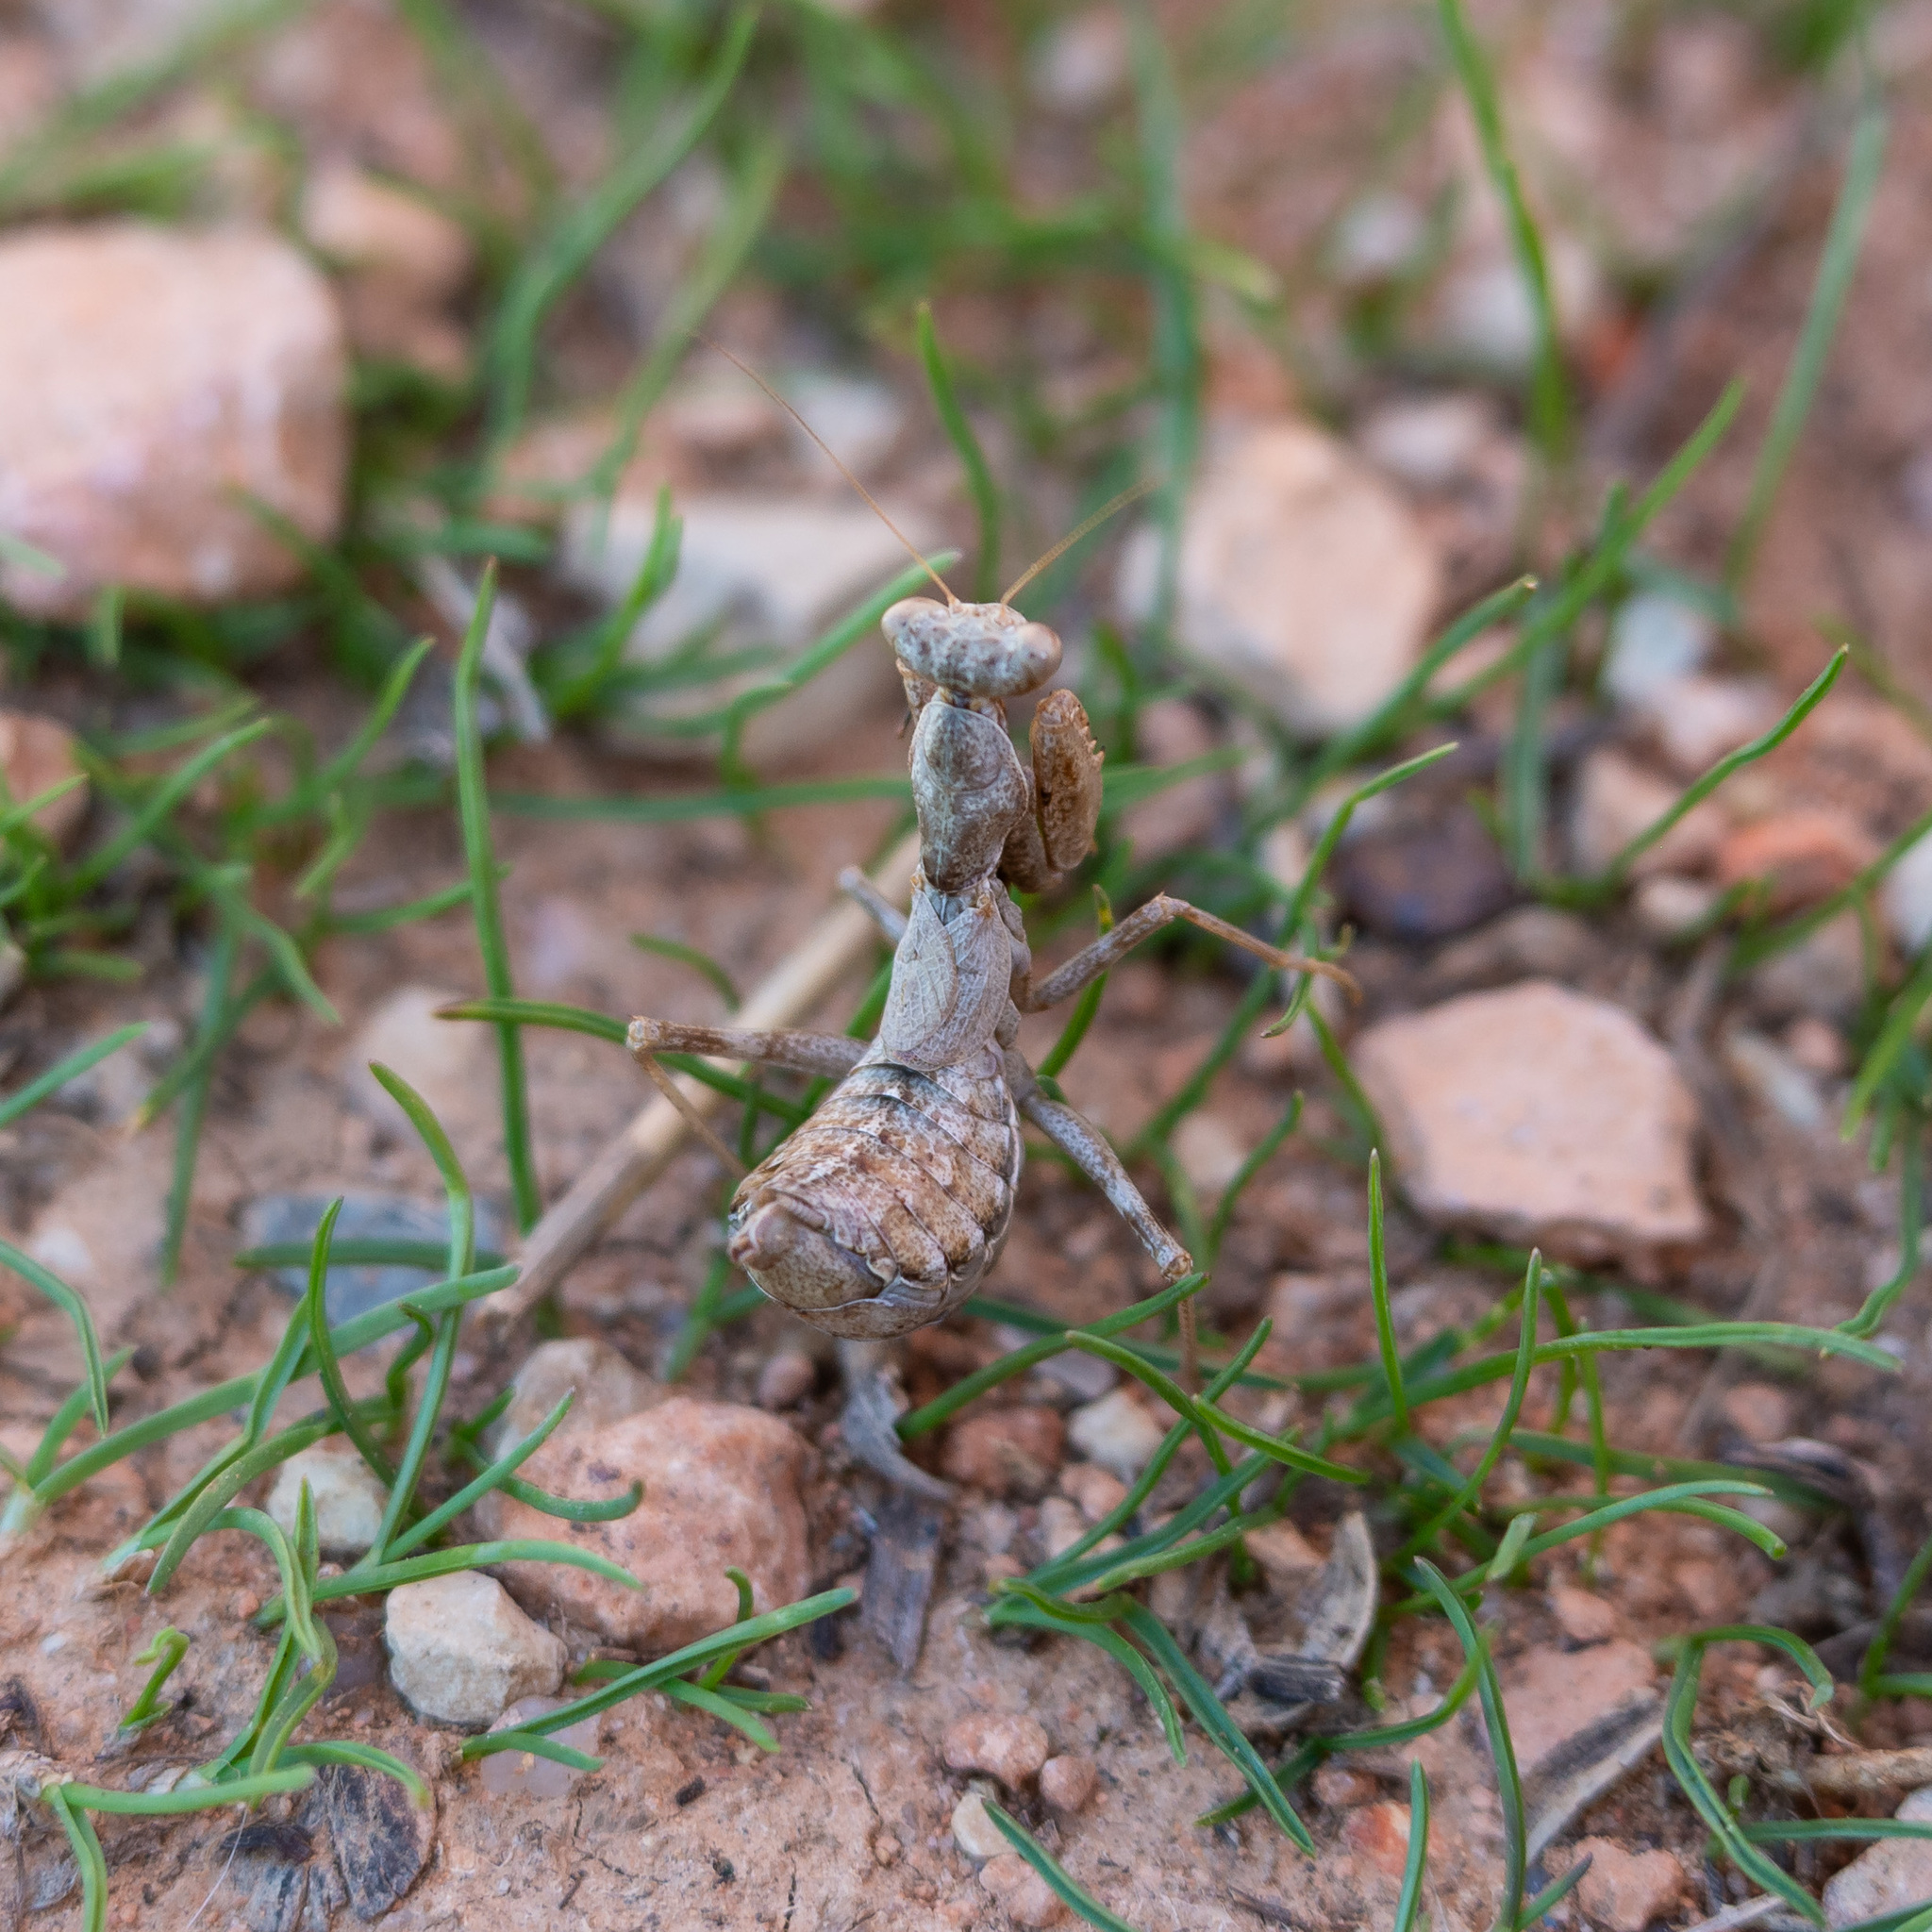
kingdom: Animalia
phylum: Arthropoda
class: Insecta
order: Mantodea
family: Amelidae
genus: Ameles
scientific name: Ameles spallanzania
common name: European dwarf mantis
